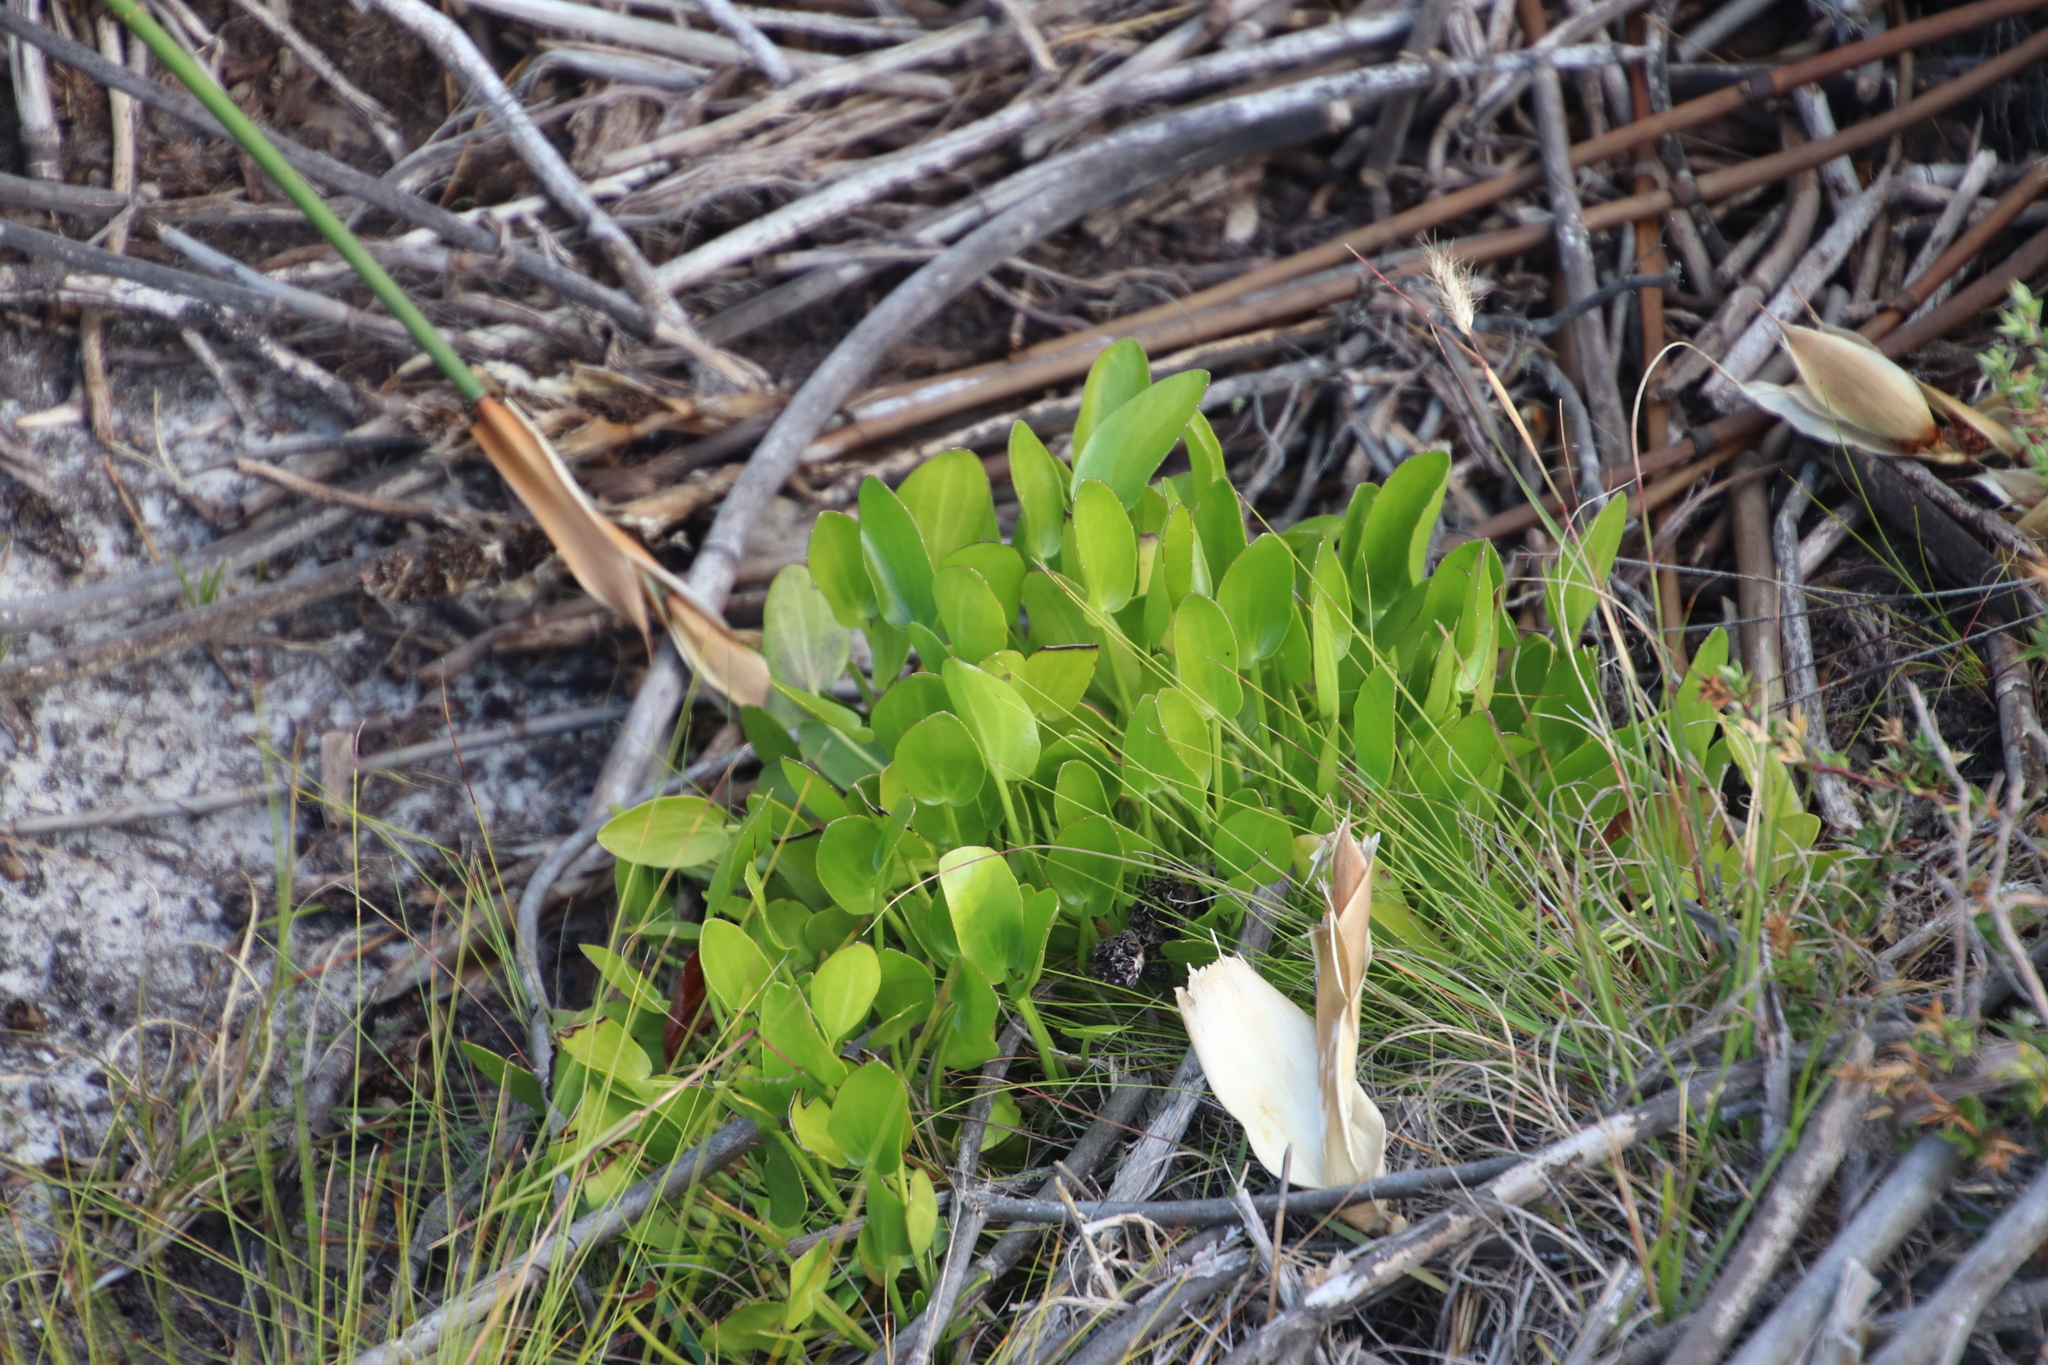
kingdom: Plantae
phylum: Tracheophyta
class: Magnoliopsida
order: Asterales
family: Menyanthaceae
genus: Villarsia
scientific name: Villarsia manningiana
